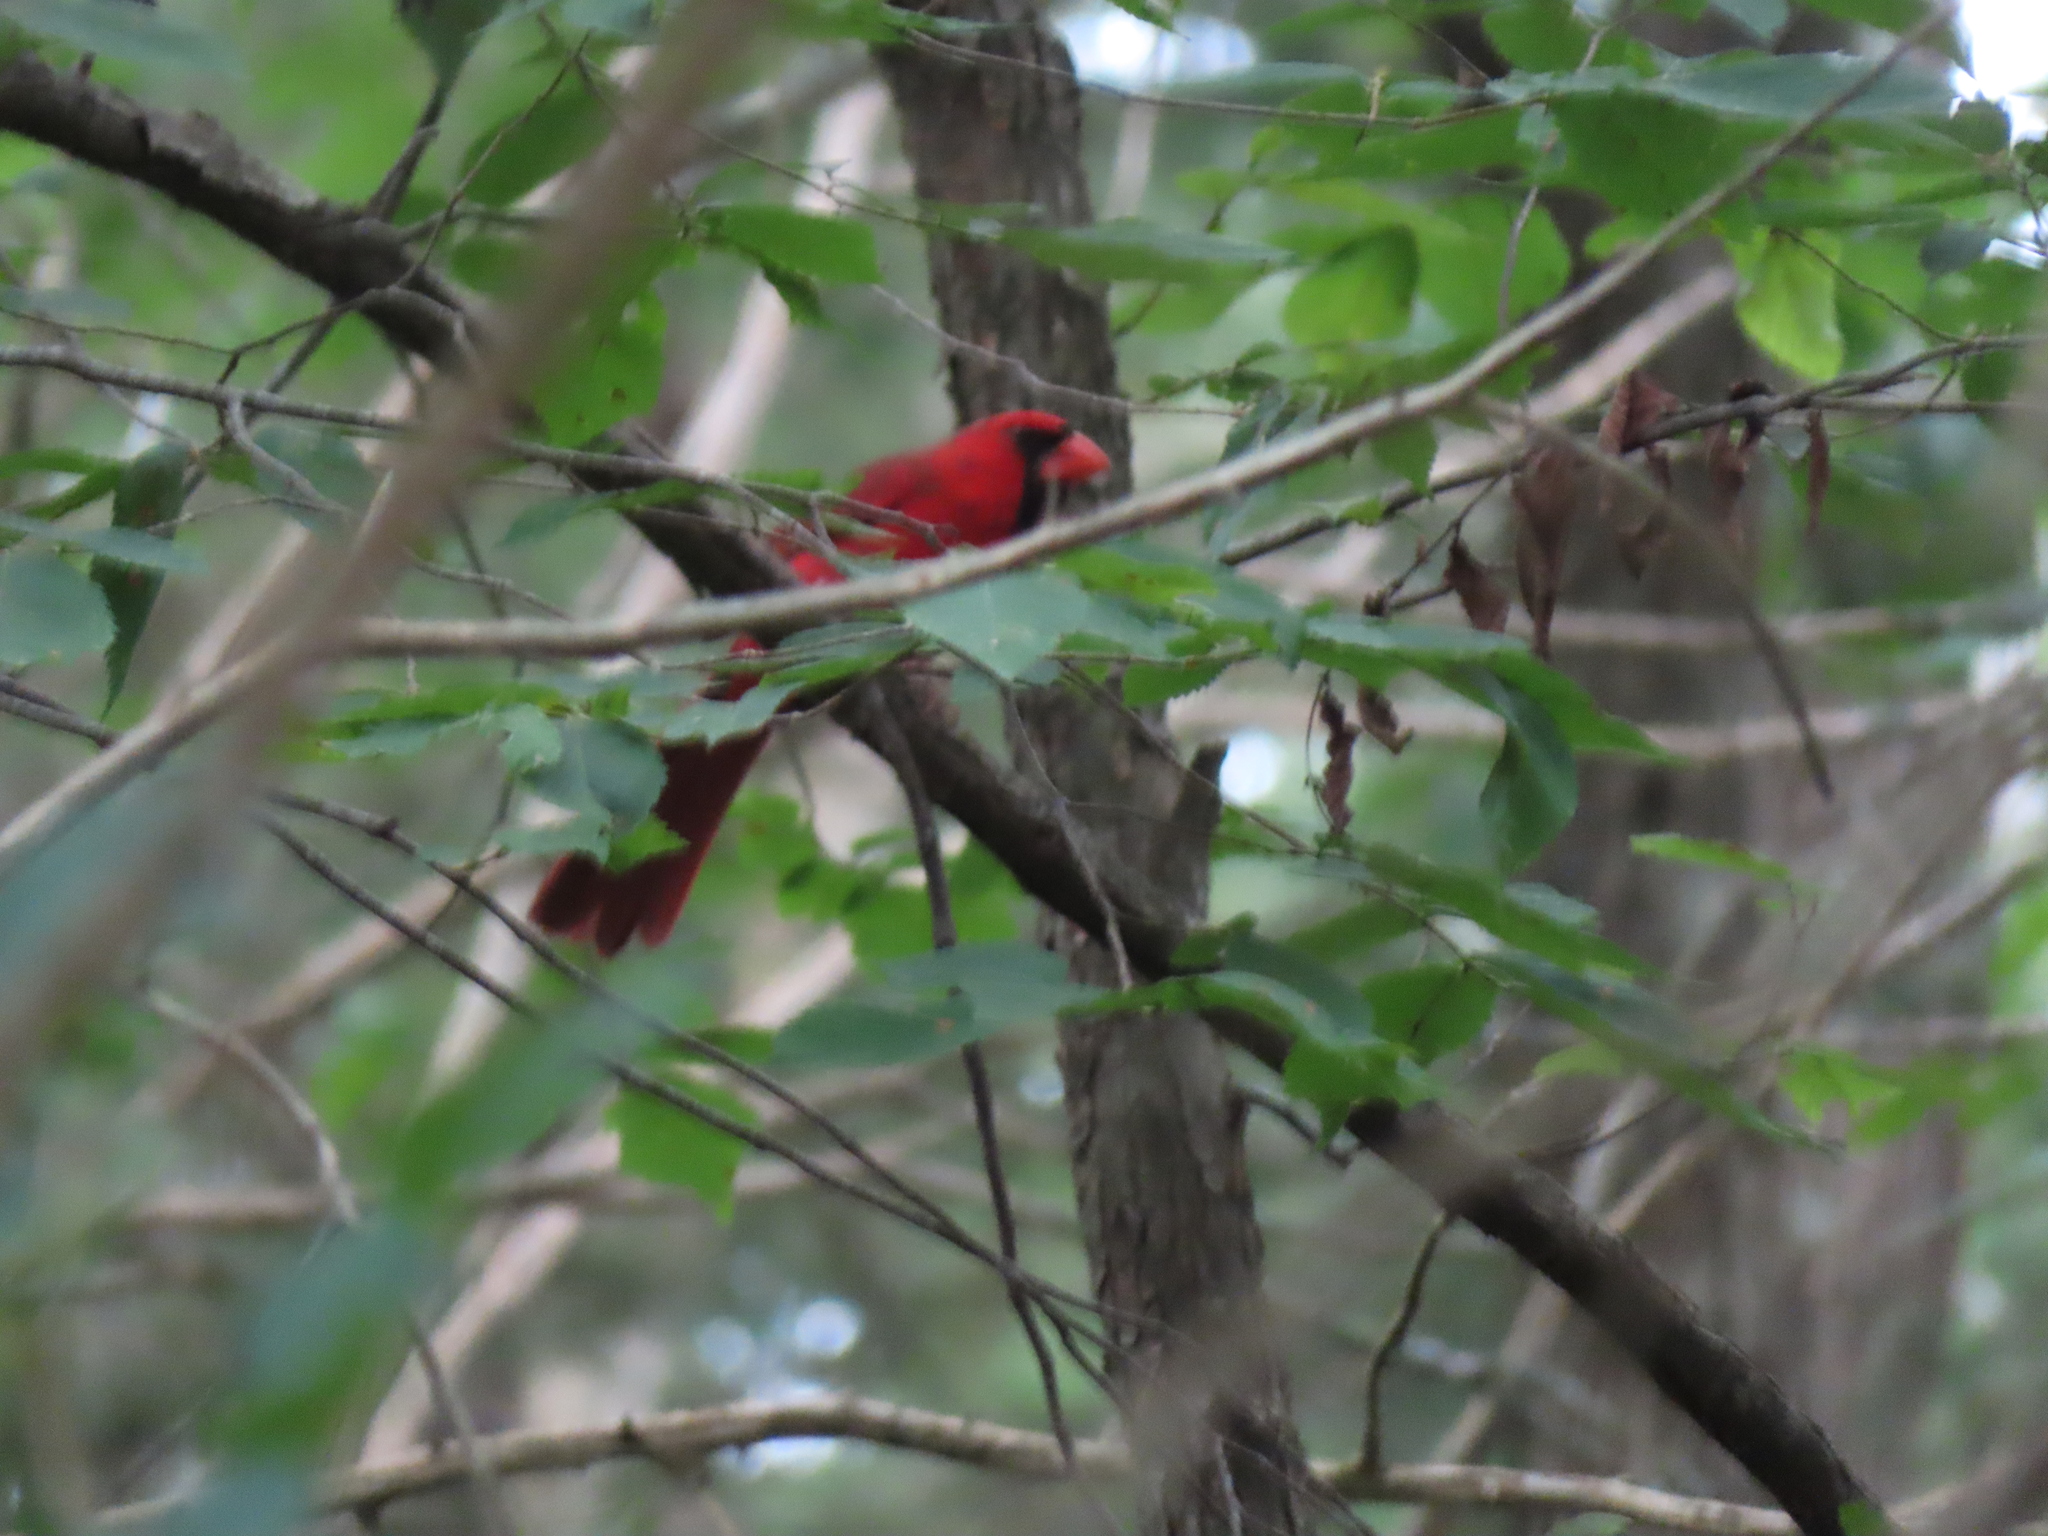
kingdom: Animalia
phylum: Chordata
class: Aves
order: Passeriformes
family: Cardinalidae
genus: Cardinalis
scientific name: Cardinalis cardinalis
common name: Northern cardinal
